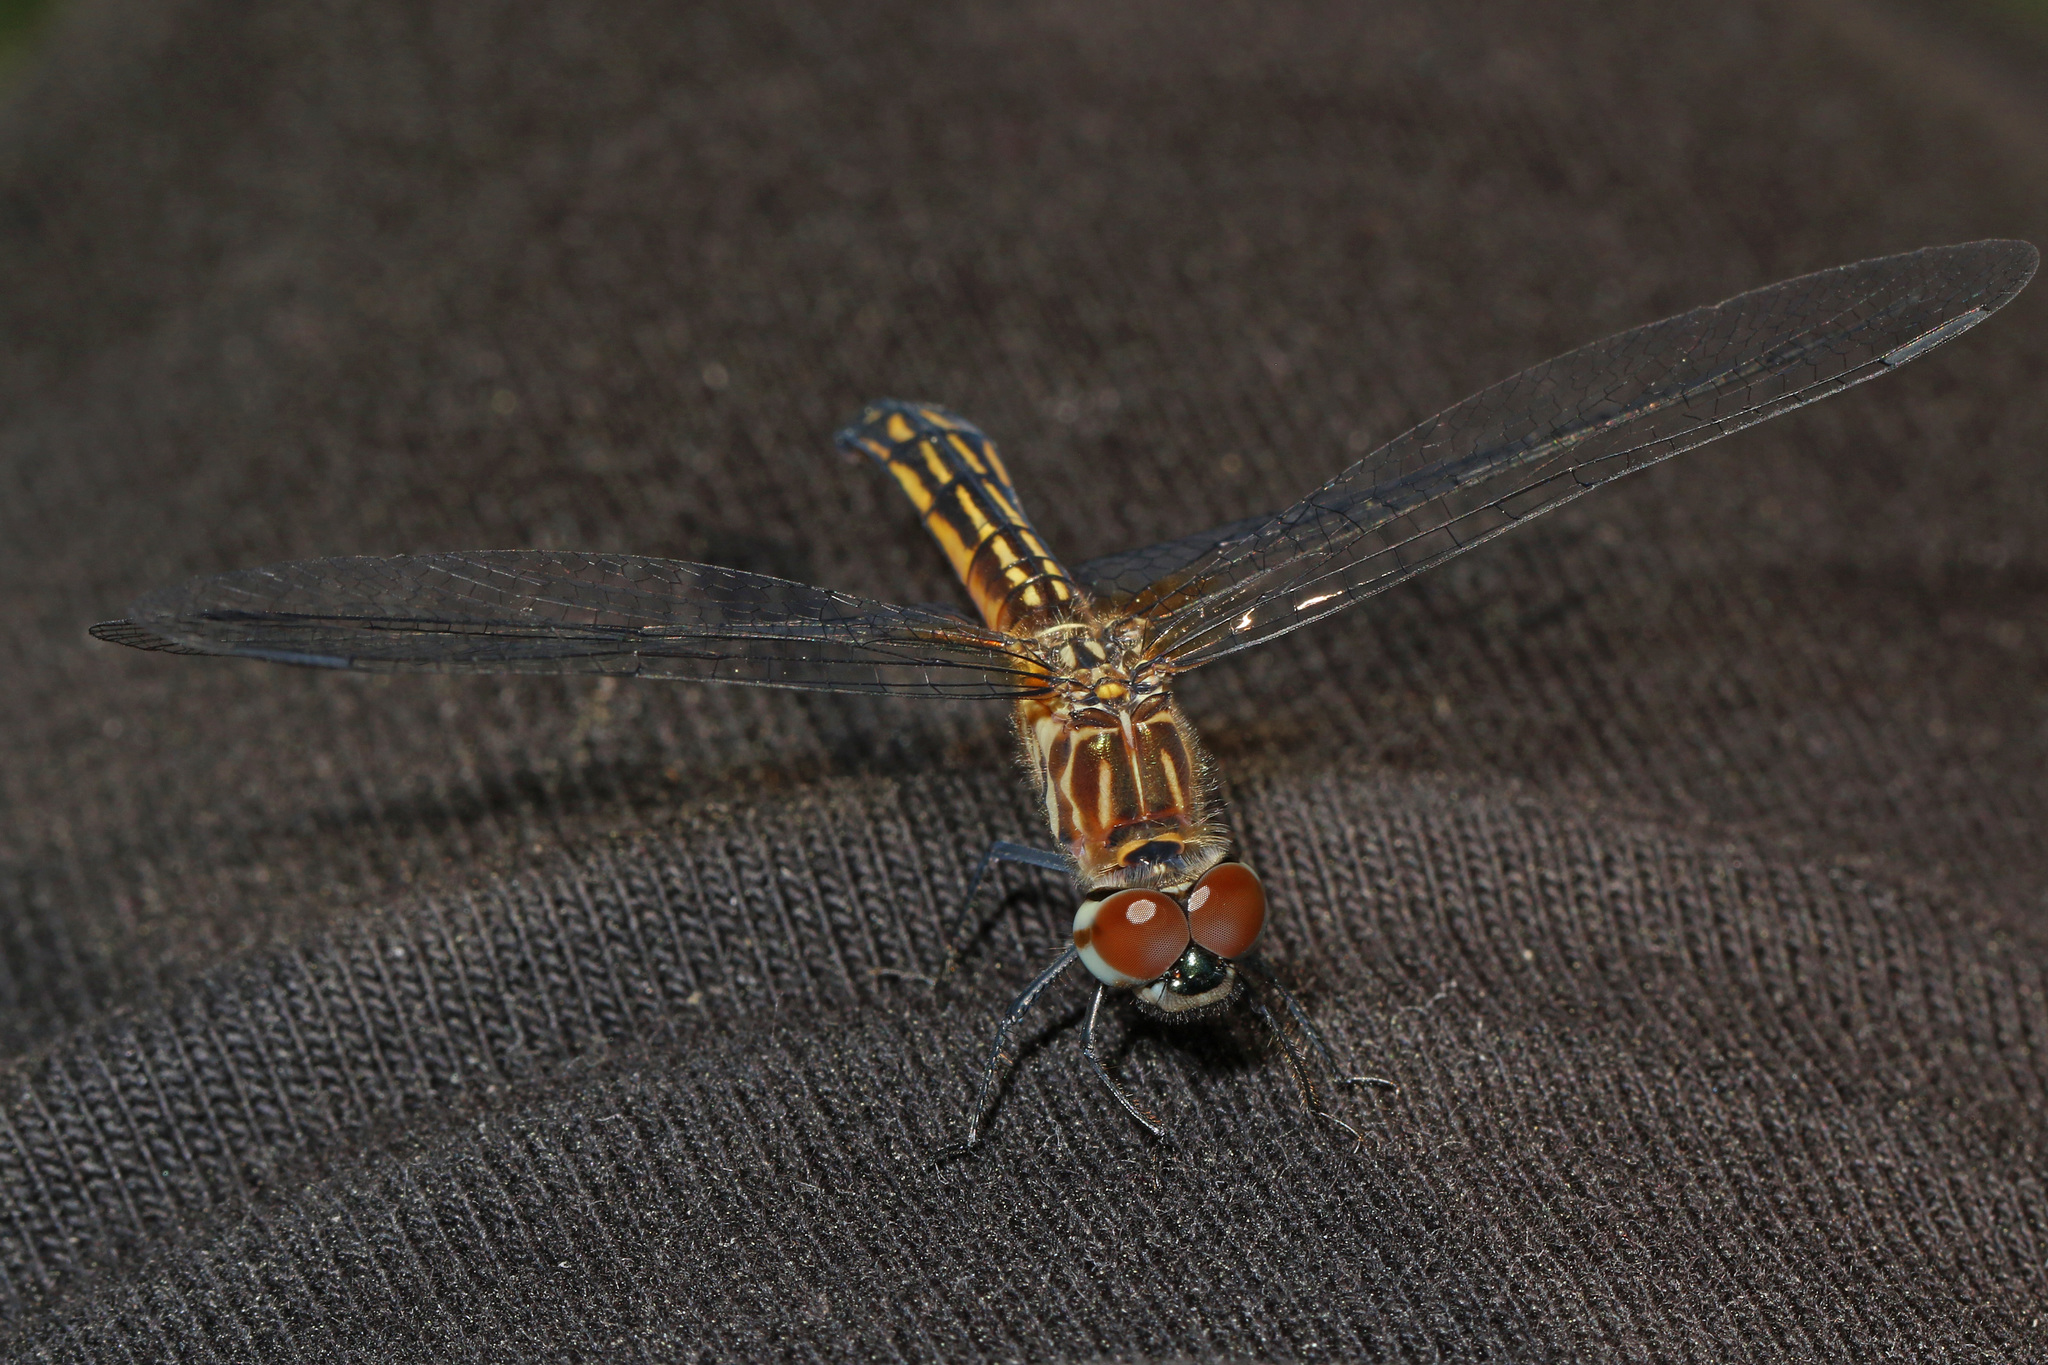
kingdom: Animalia
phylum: Arthropoda
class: Insecta
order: Odonata
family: Libellulidae
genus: Pachydiplax
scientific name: Pachydiplax longipennis
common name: Blue dasher
